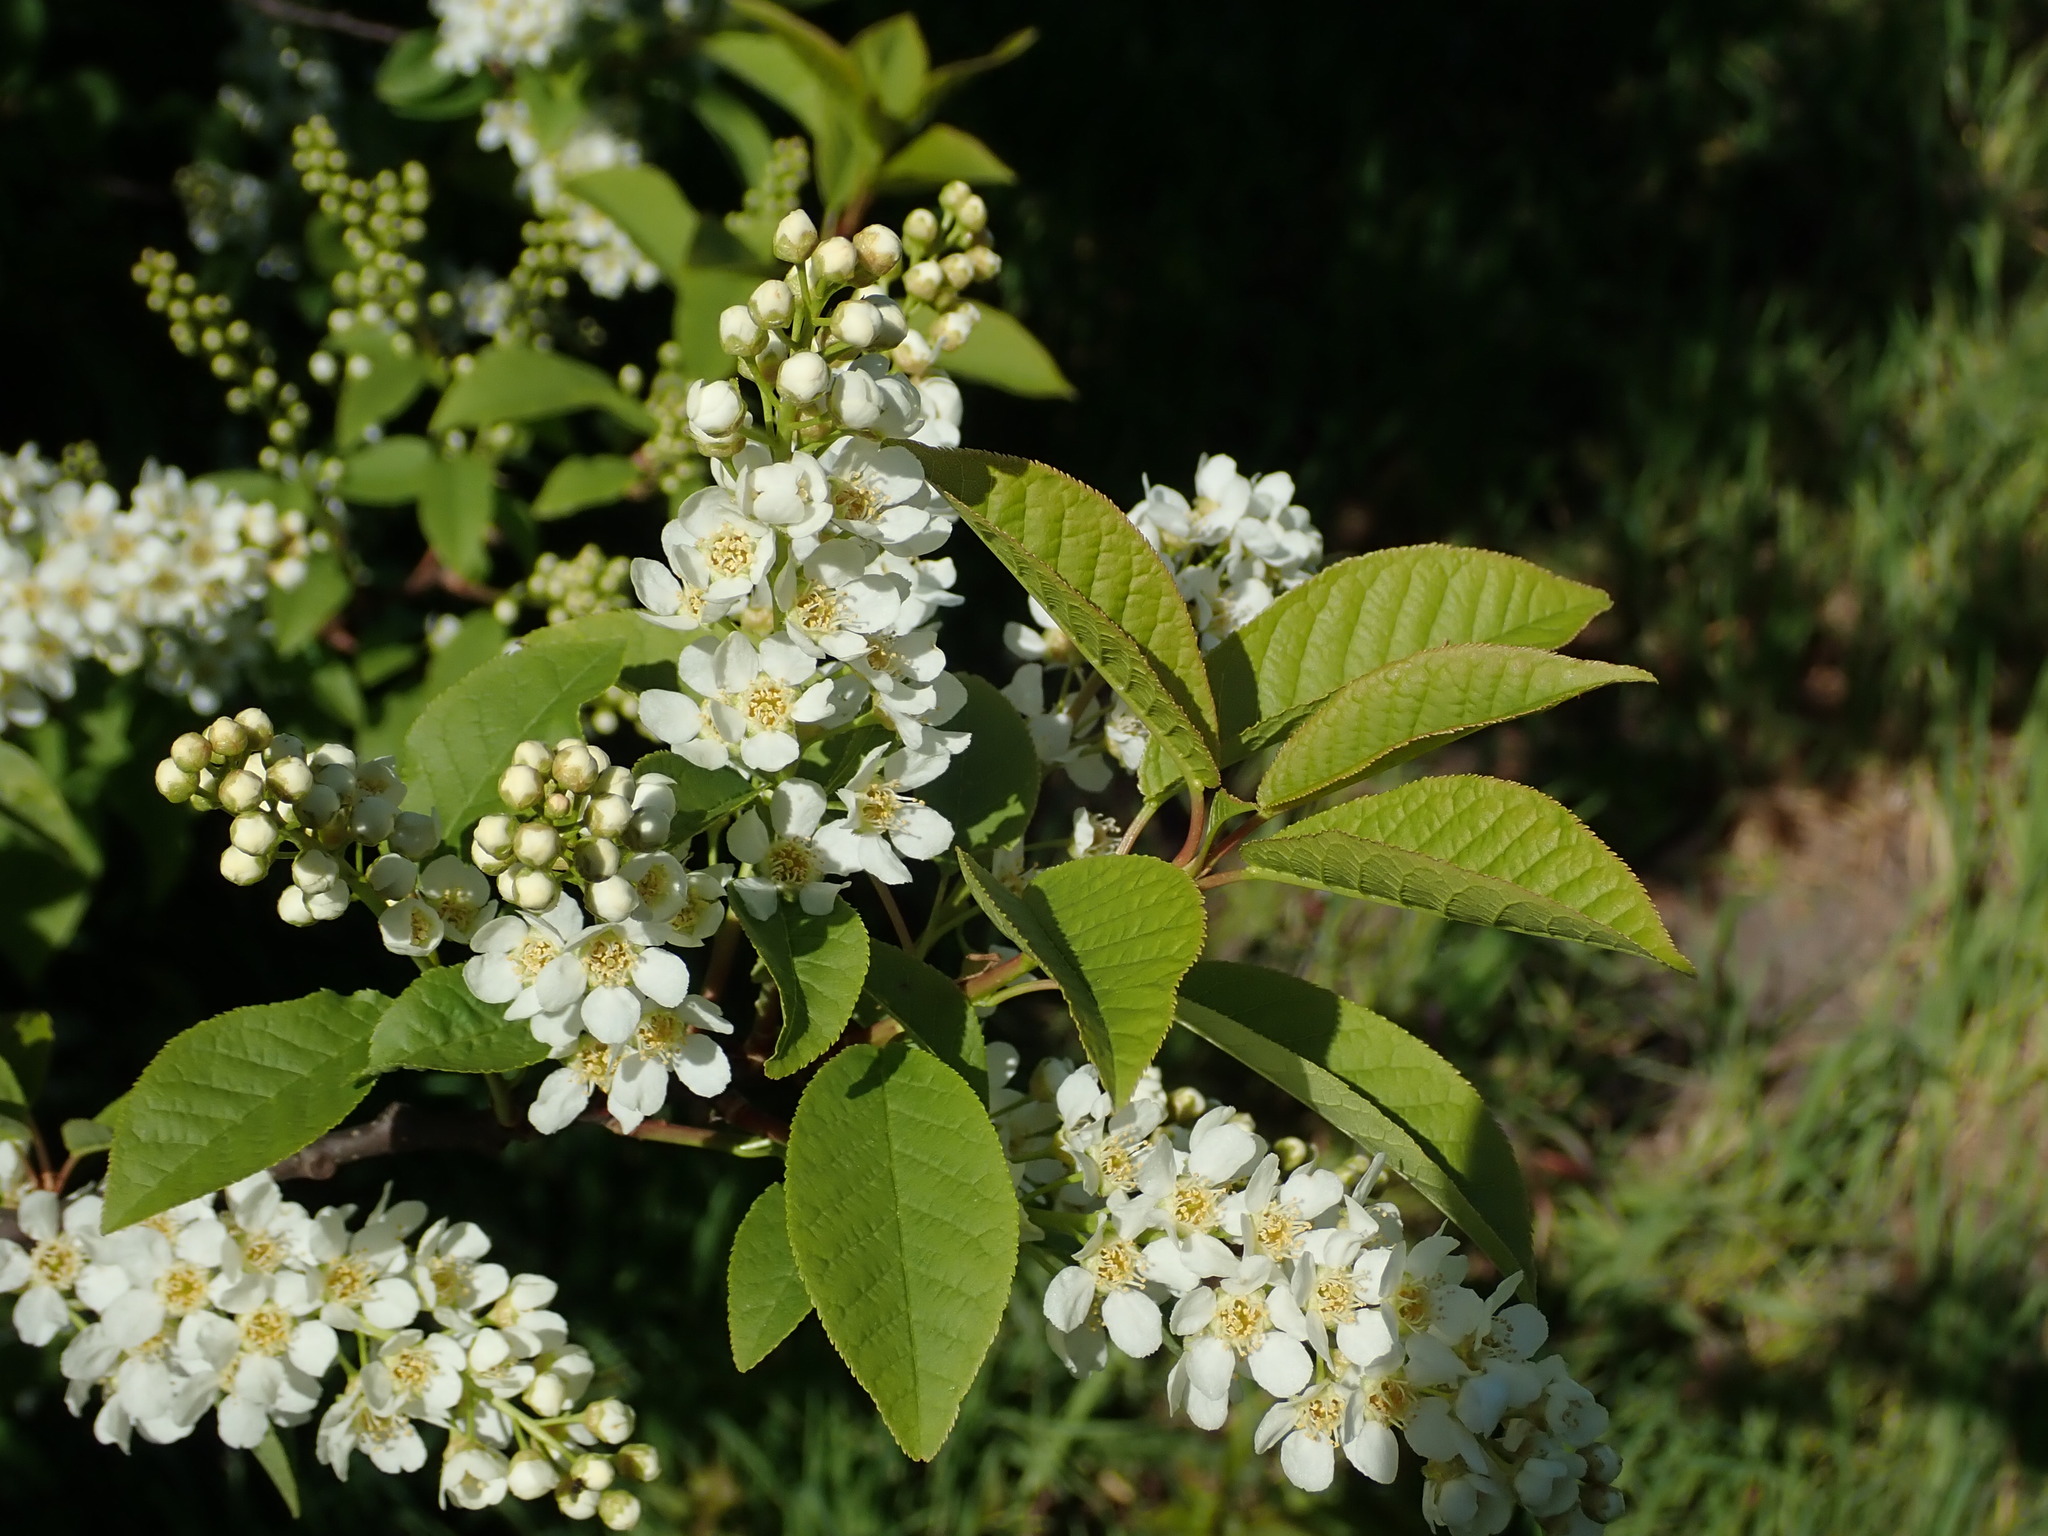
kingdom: Plantae
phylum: Tracheophyta
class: Magnoliopsida
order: Rosales
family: Rosaceae
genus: Prunus
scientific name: Prunus padus
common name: Bird cherry
